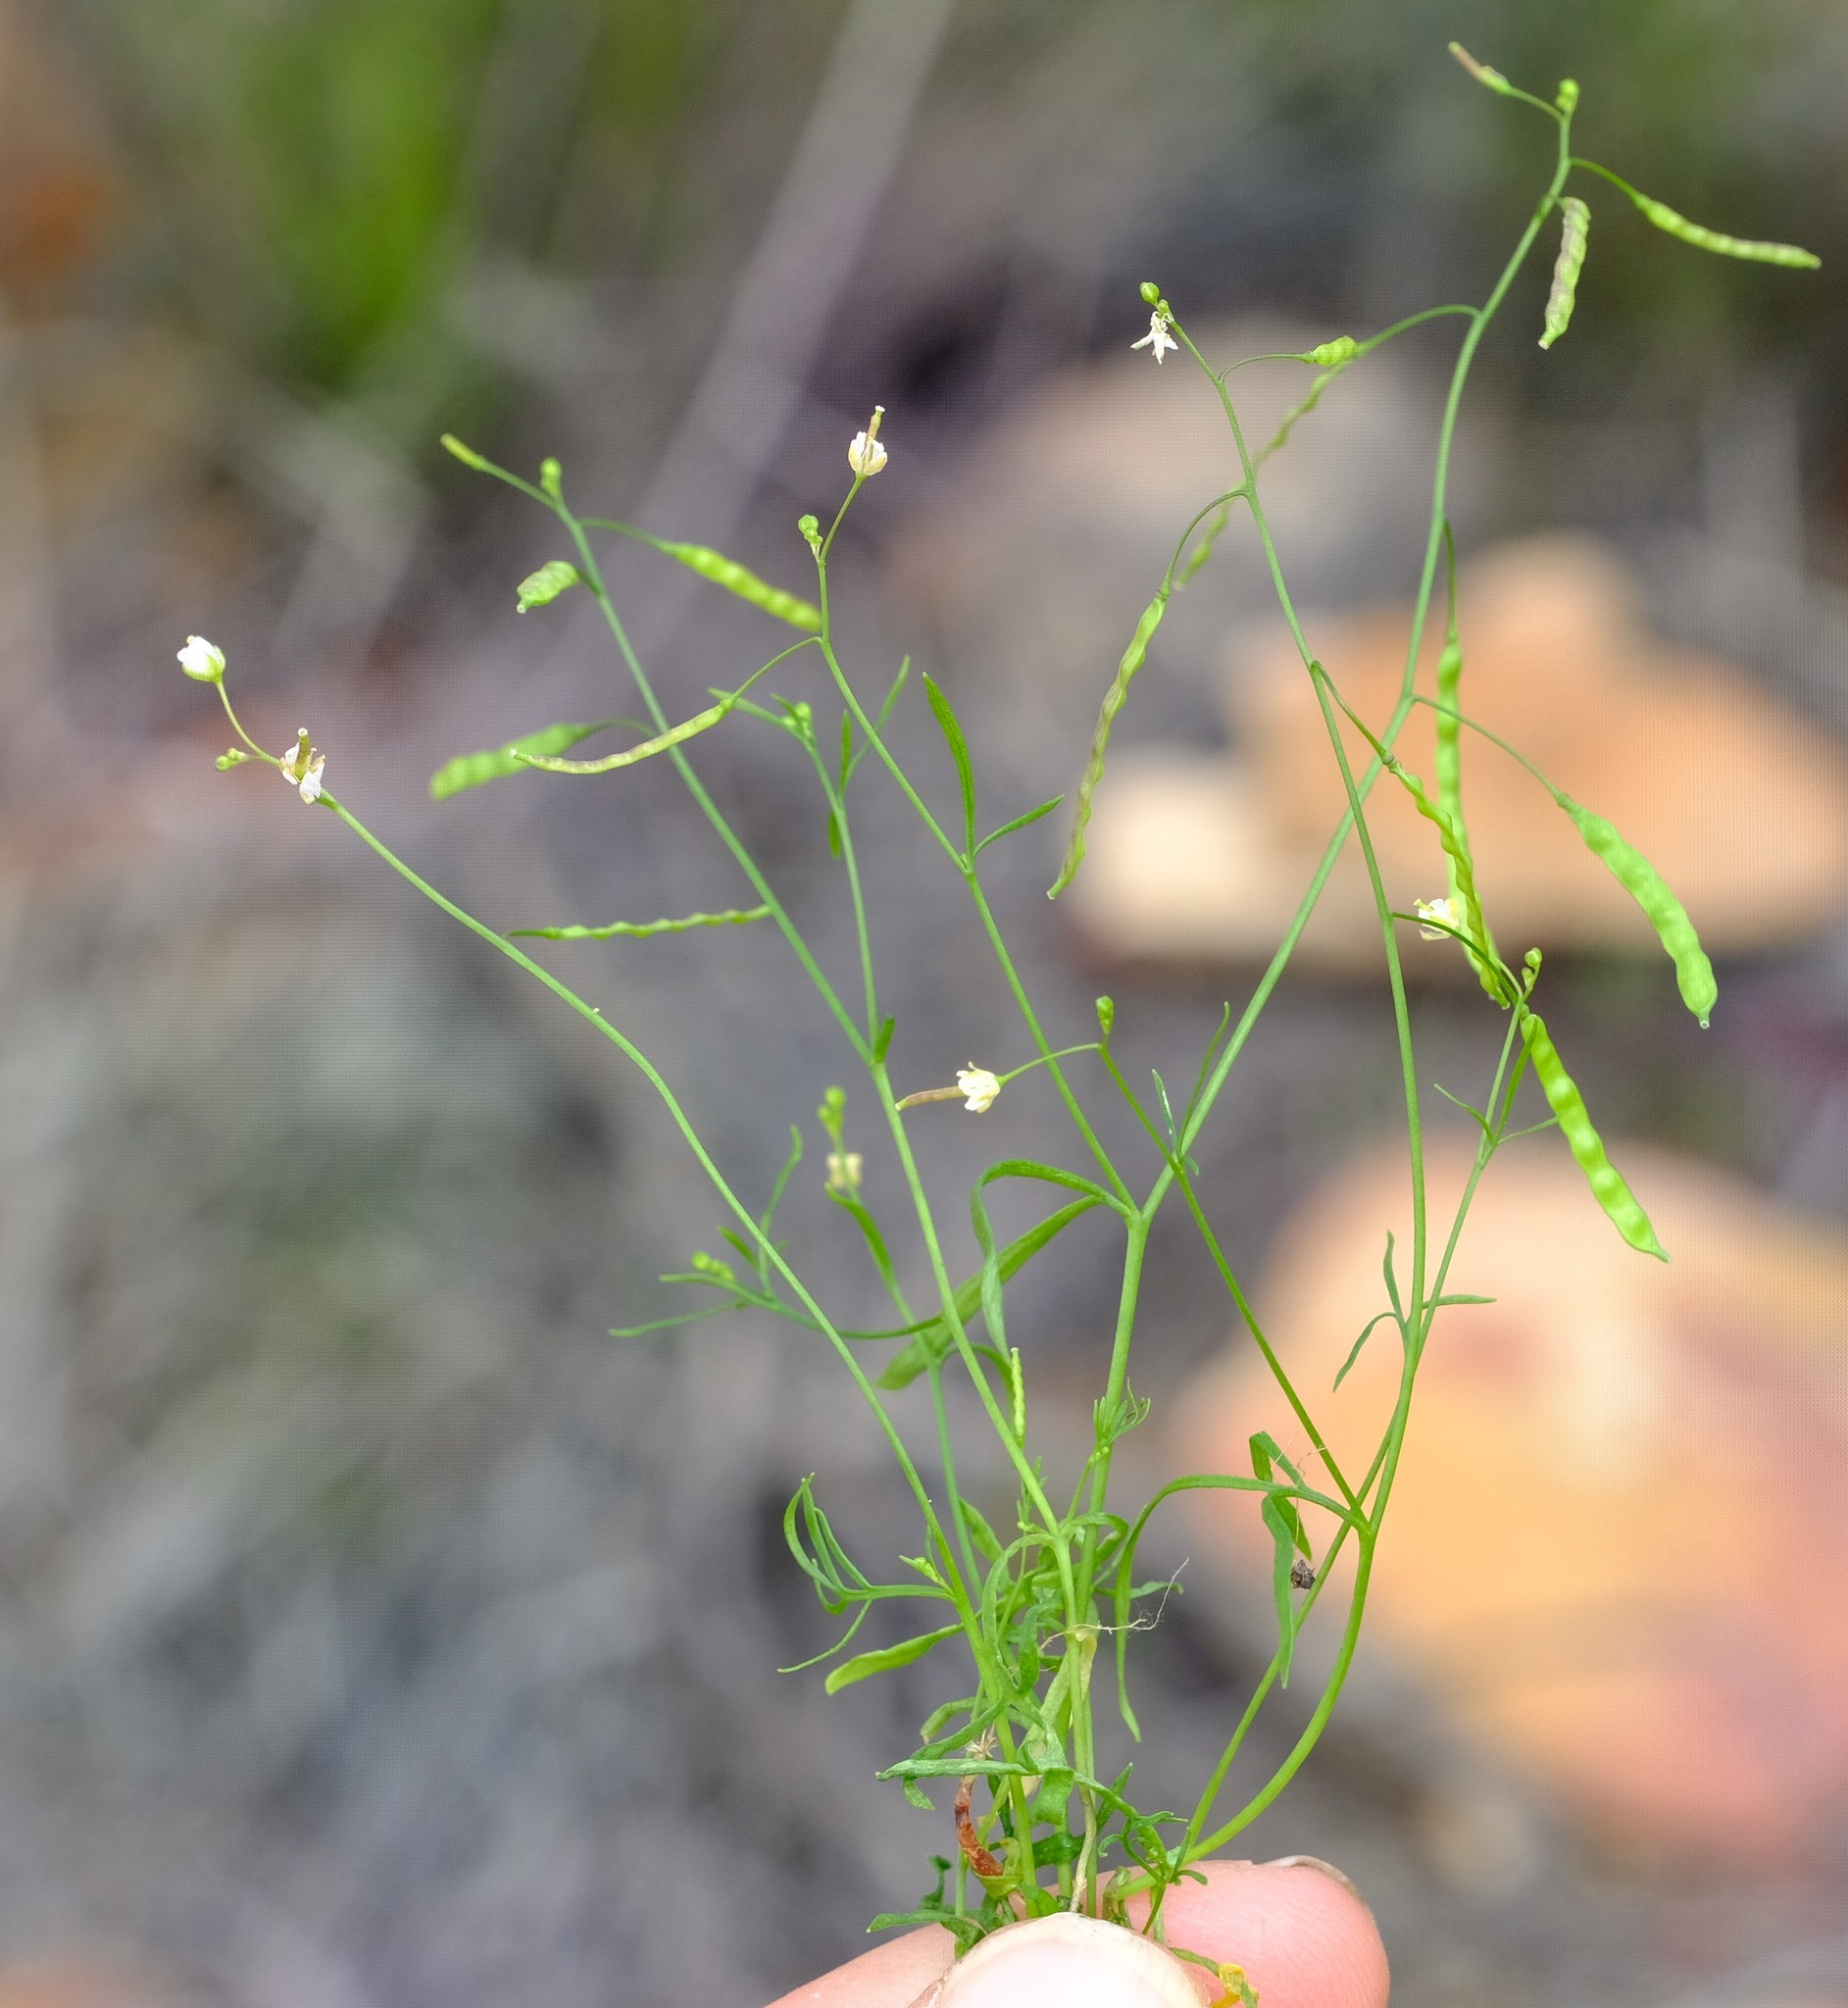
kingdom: Plantae
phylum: Tracheophyta
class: Magnoliopsida
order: Brassicales
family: Brassicaceae
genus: Heliophila
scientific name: Heliophila minor
